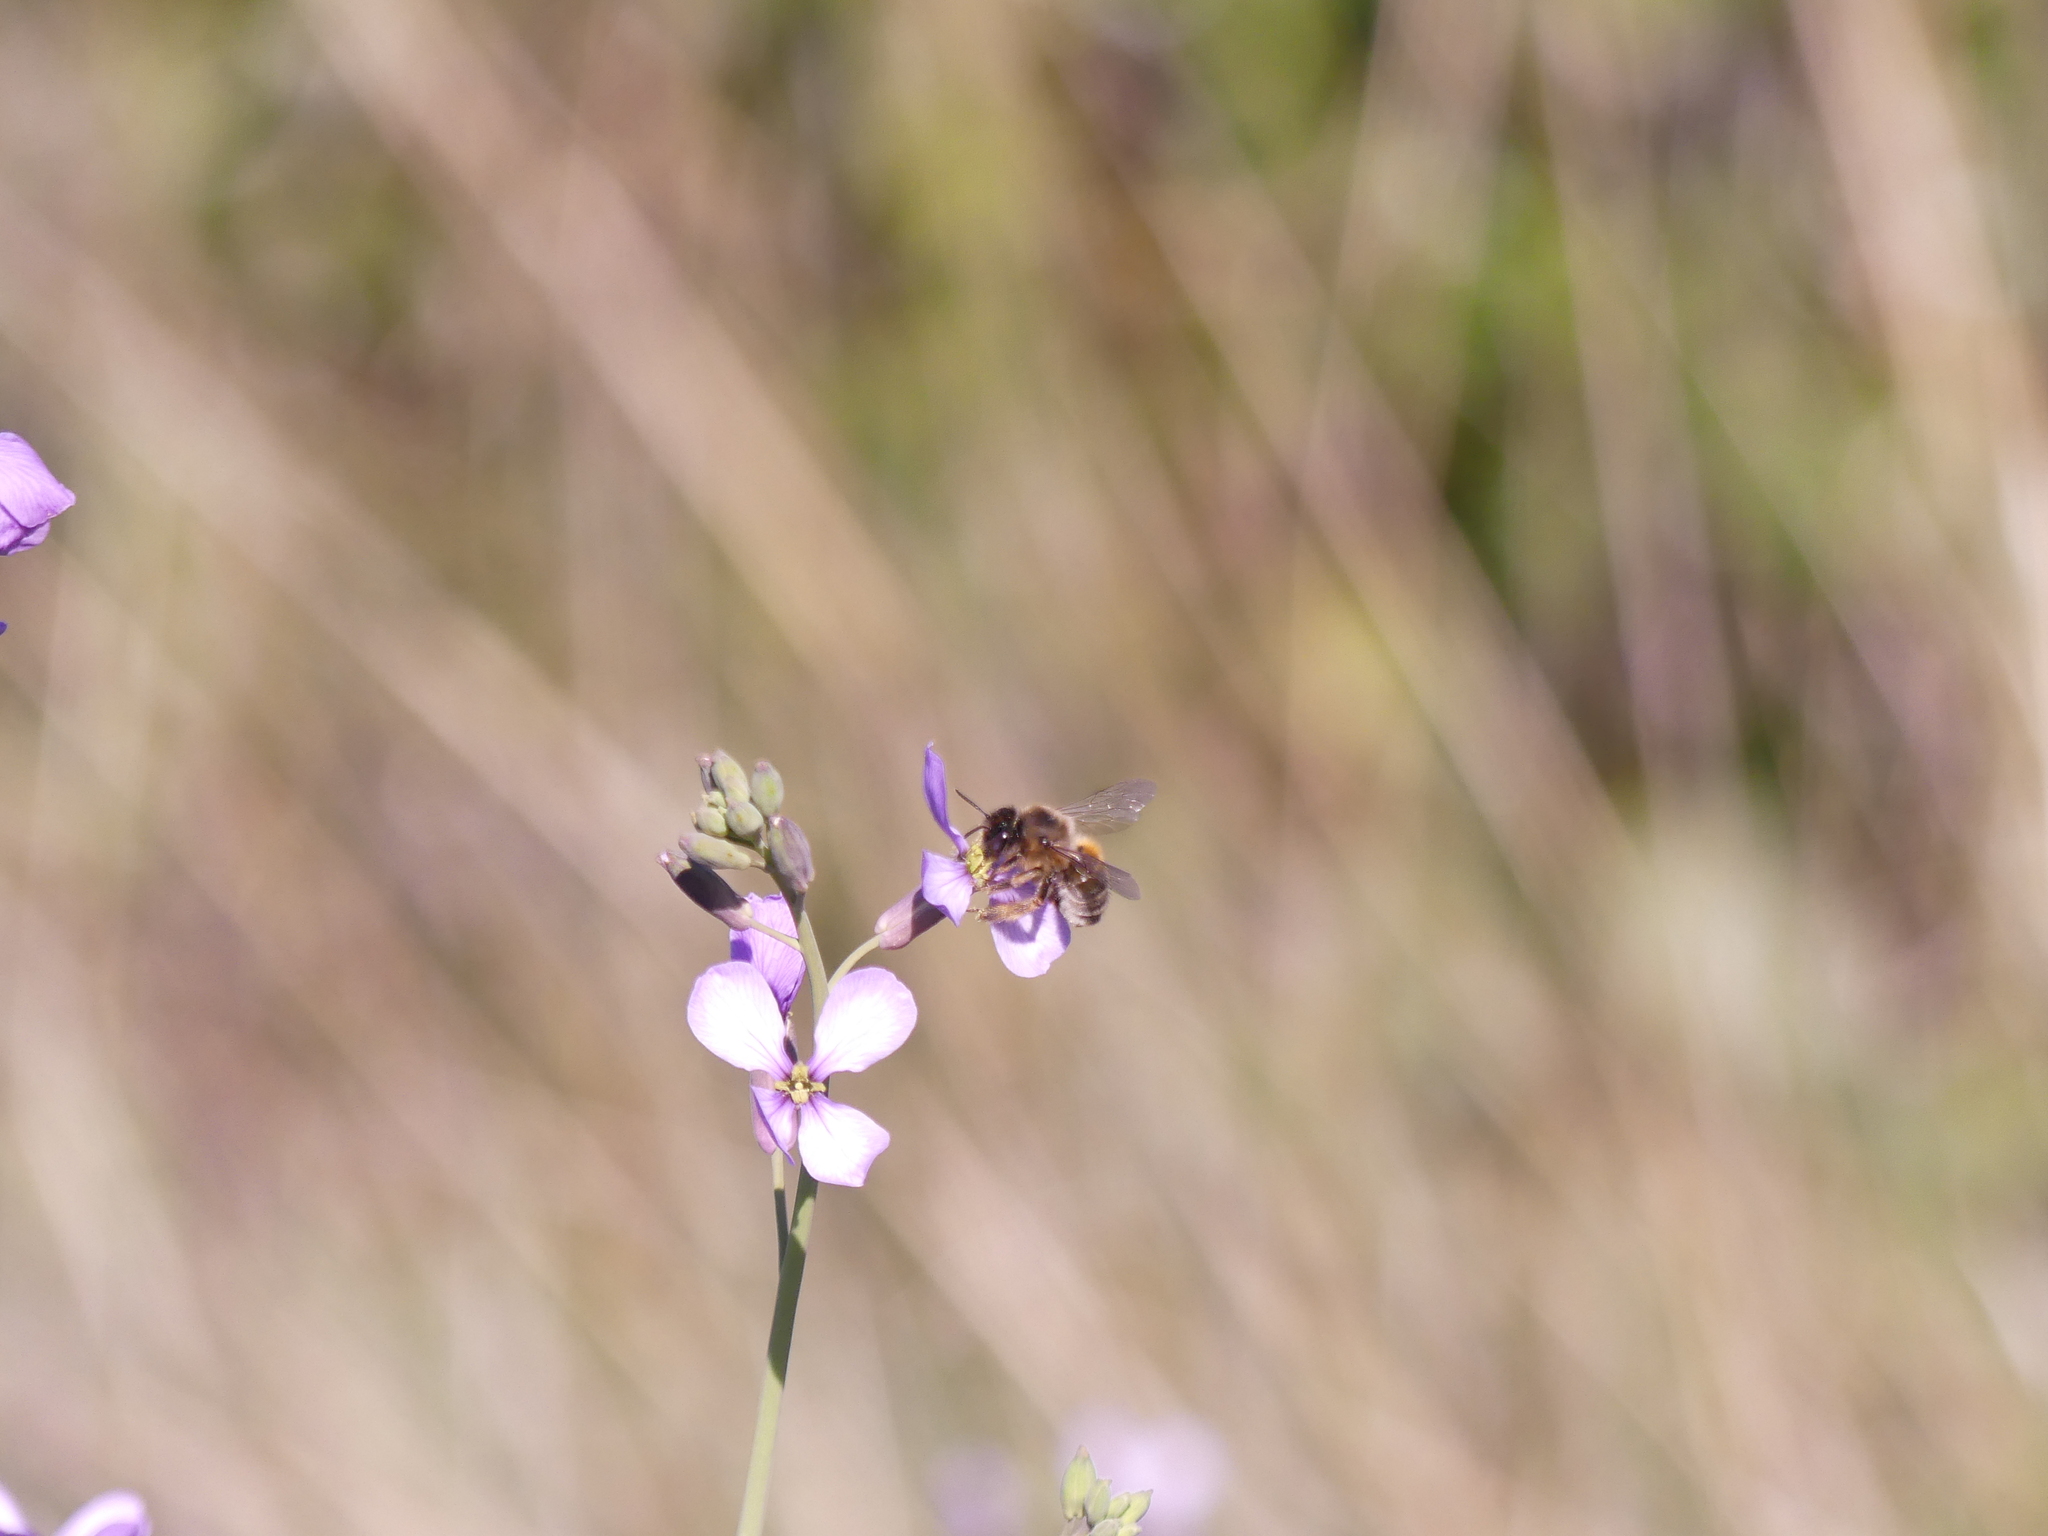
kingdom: Animalia
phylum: Arthropoda
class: Insecta
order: Hymenoptera
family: Apidae
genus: Apis
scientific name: Apis mellifera
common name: Honey bee
